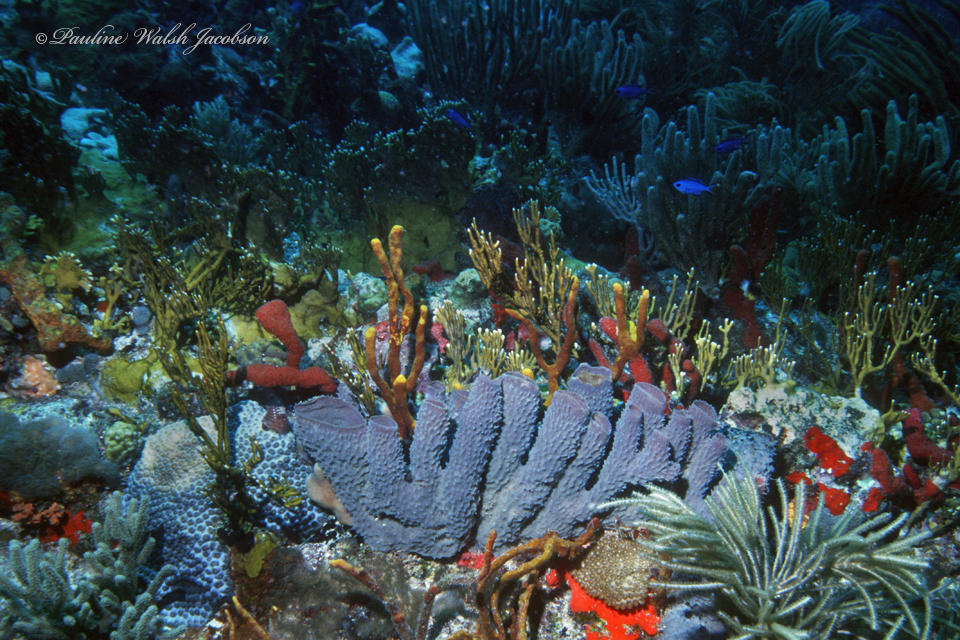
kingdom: Animalia
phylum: Porifera
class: Demospongiae
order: Haplosclerida
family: Callyspongiidae
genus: Callyspongia
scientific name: Callyspongia aculeata
